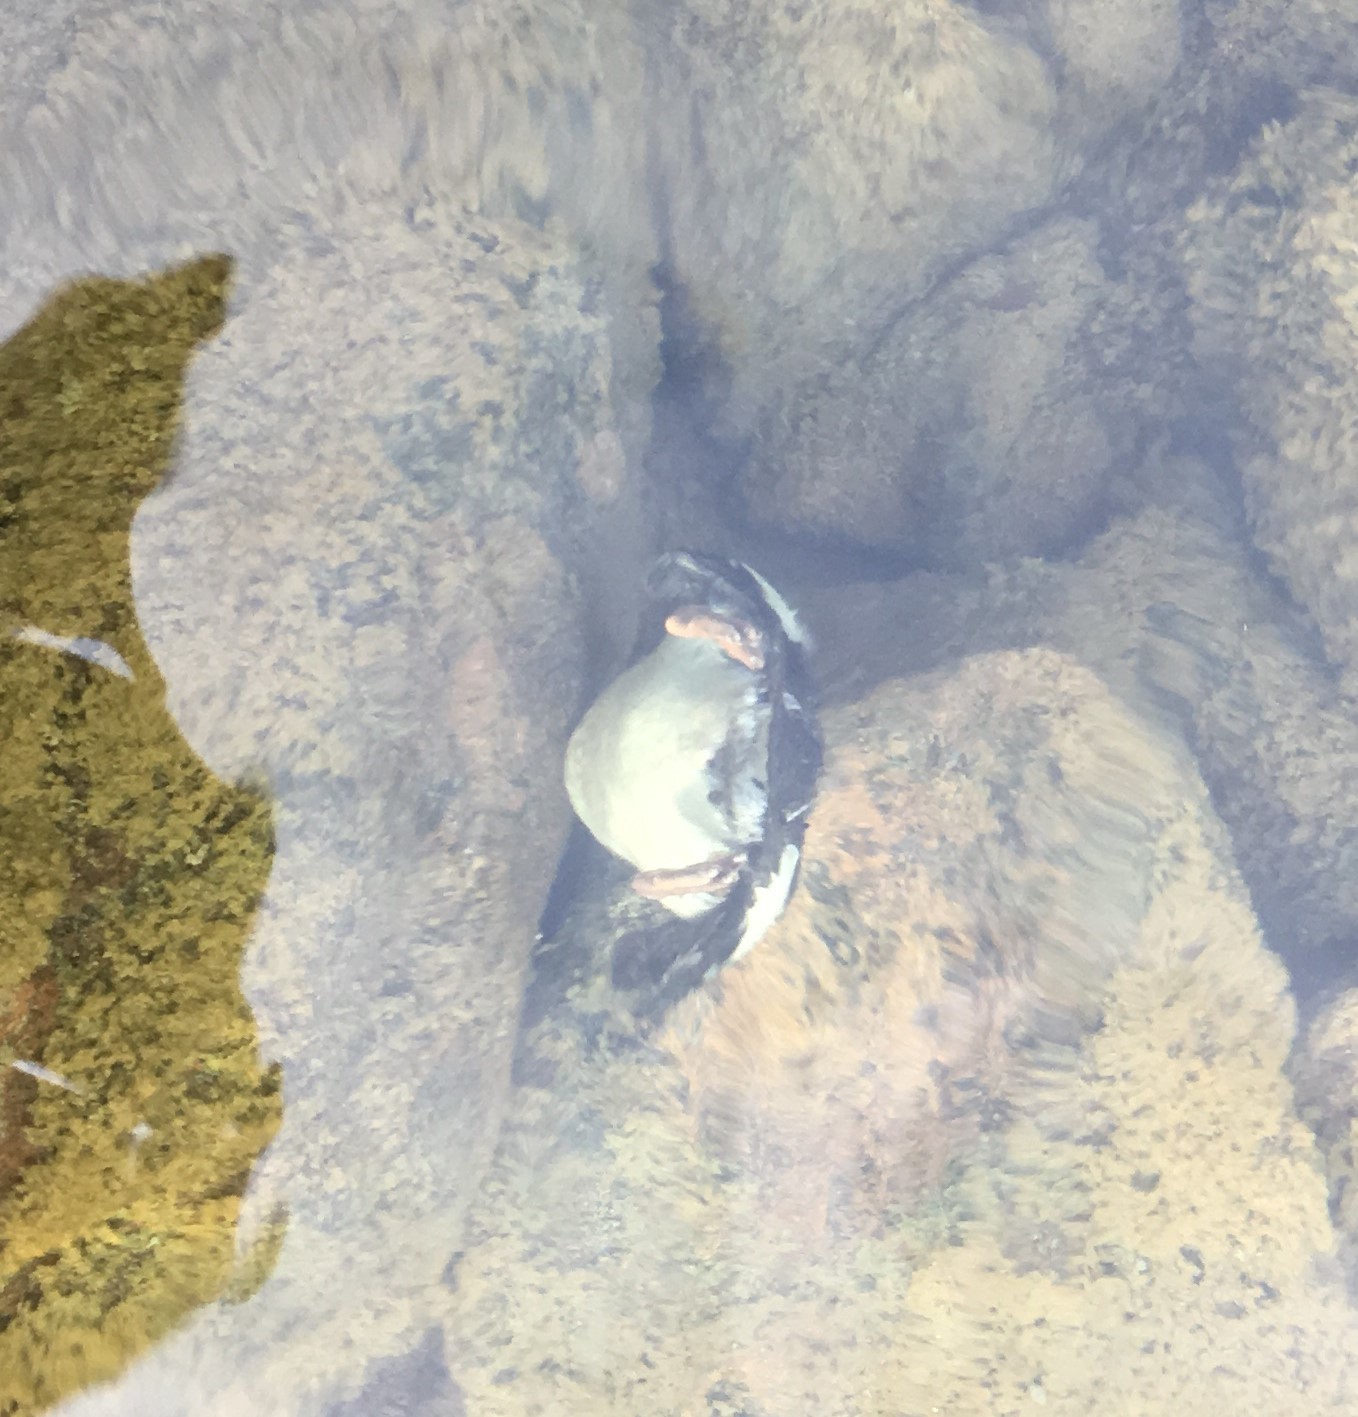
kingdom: Animalia
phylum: Chordata
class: Aves
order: Anseriformes
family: Anatidae
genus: Bucephala
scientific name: Bucephala clangula
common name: Common goldeneye
